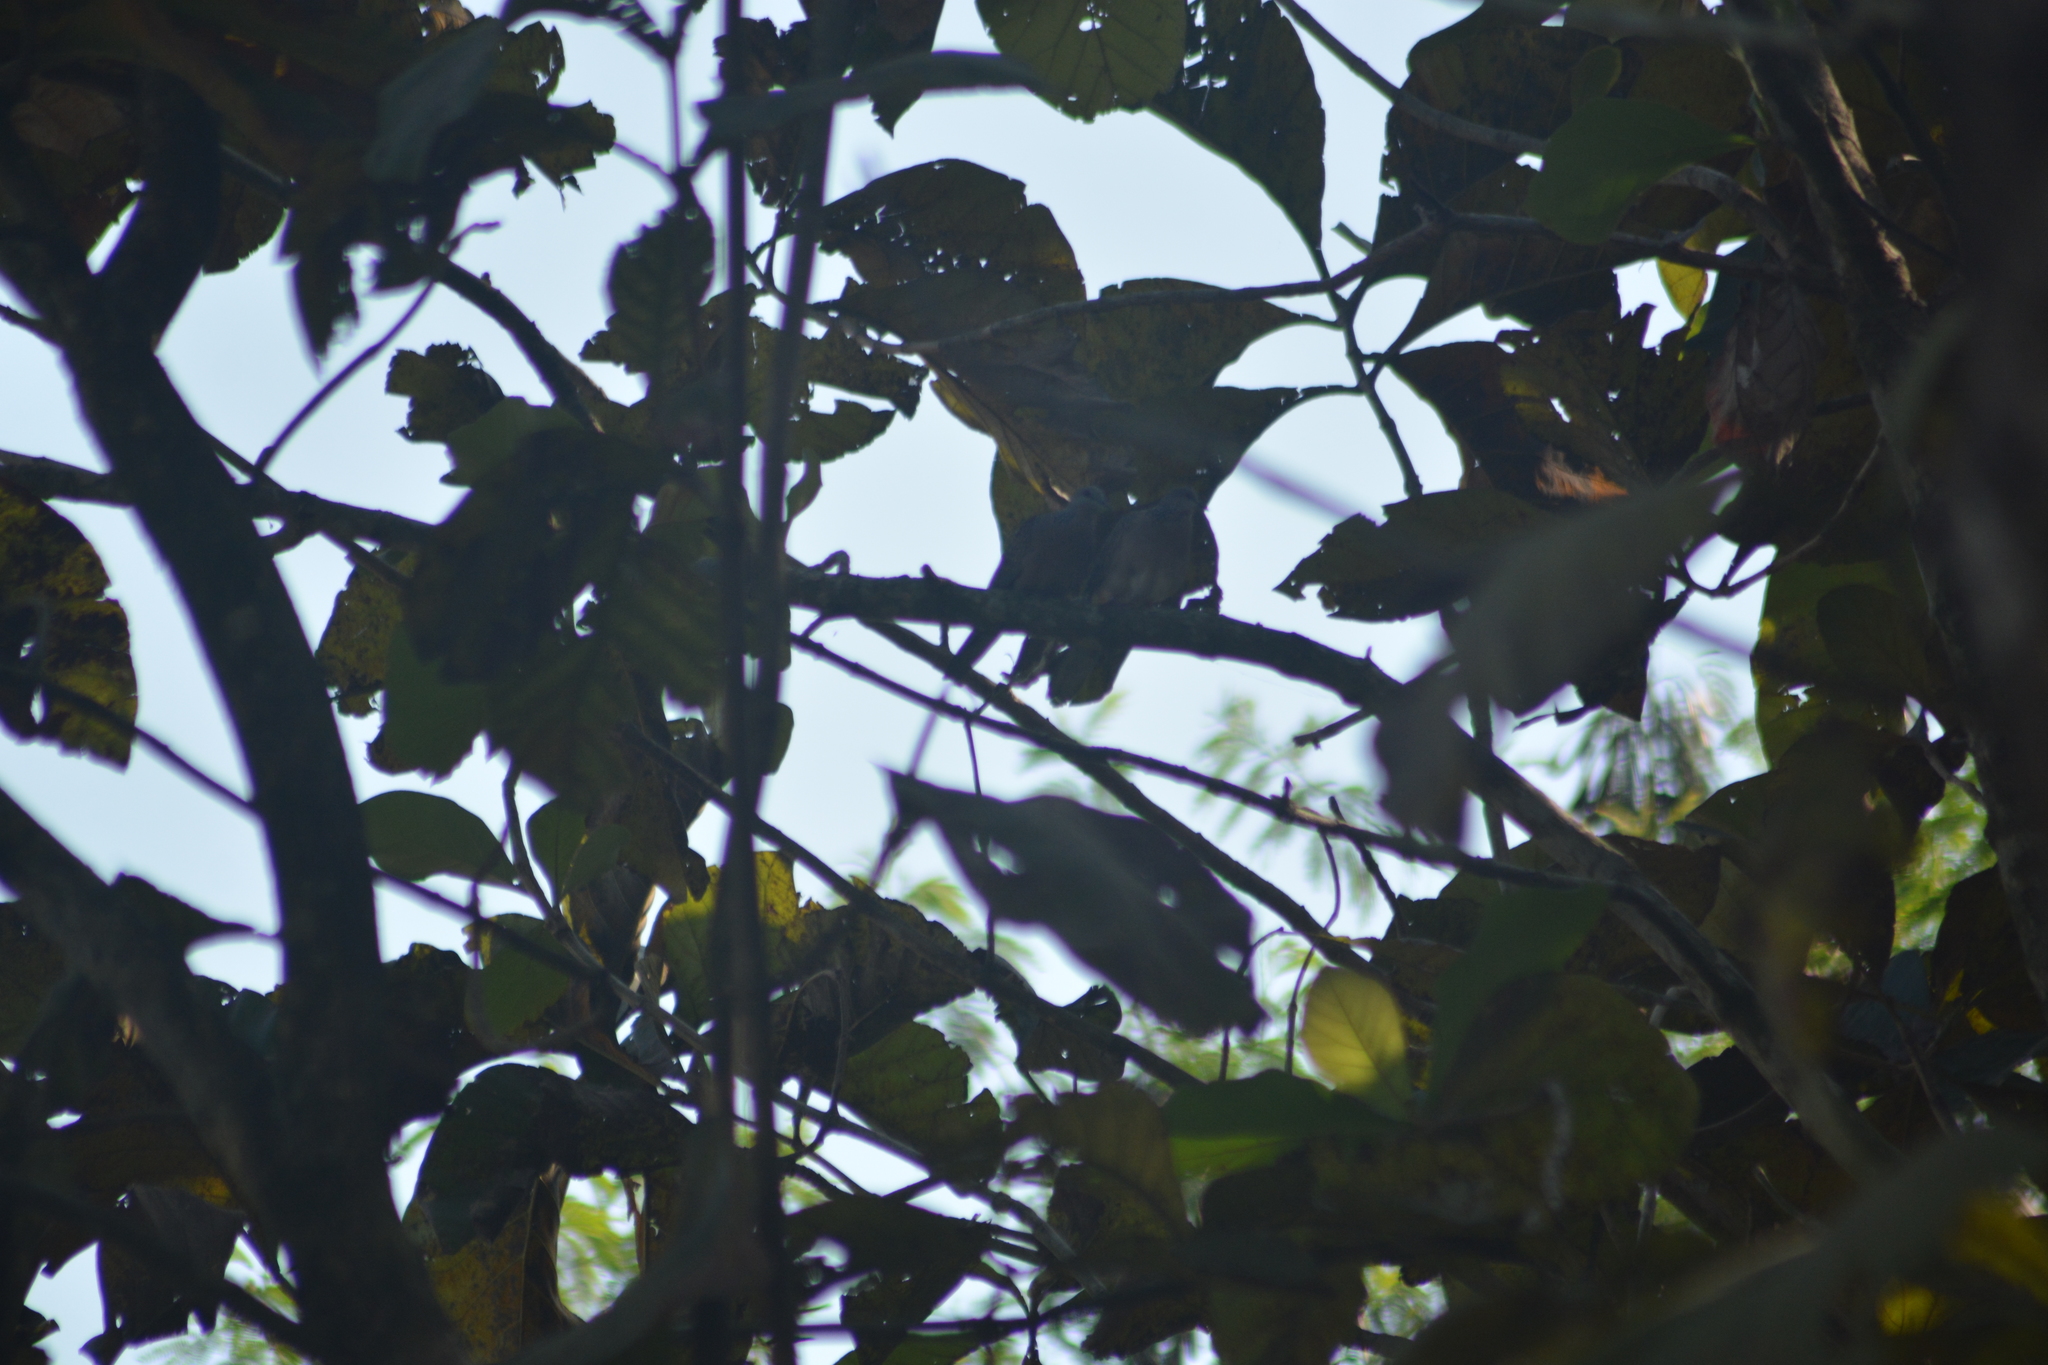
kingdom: Animalia
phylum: Chordata
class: Aves
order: Columbiformes
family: Columbidae
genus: Spilopelia
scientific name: Spilopelia chinensis
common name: Spotted dove
